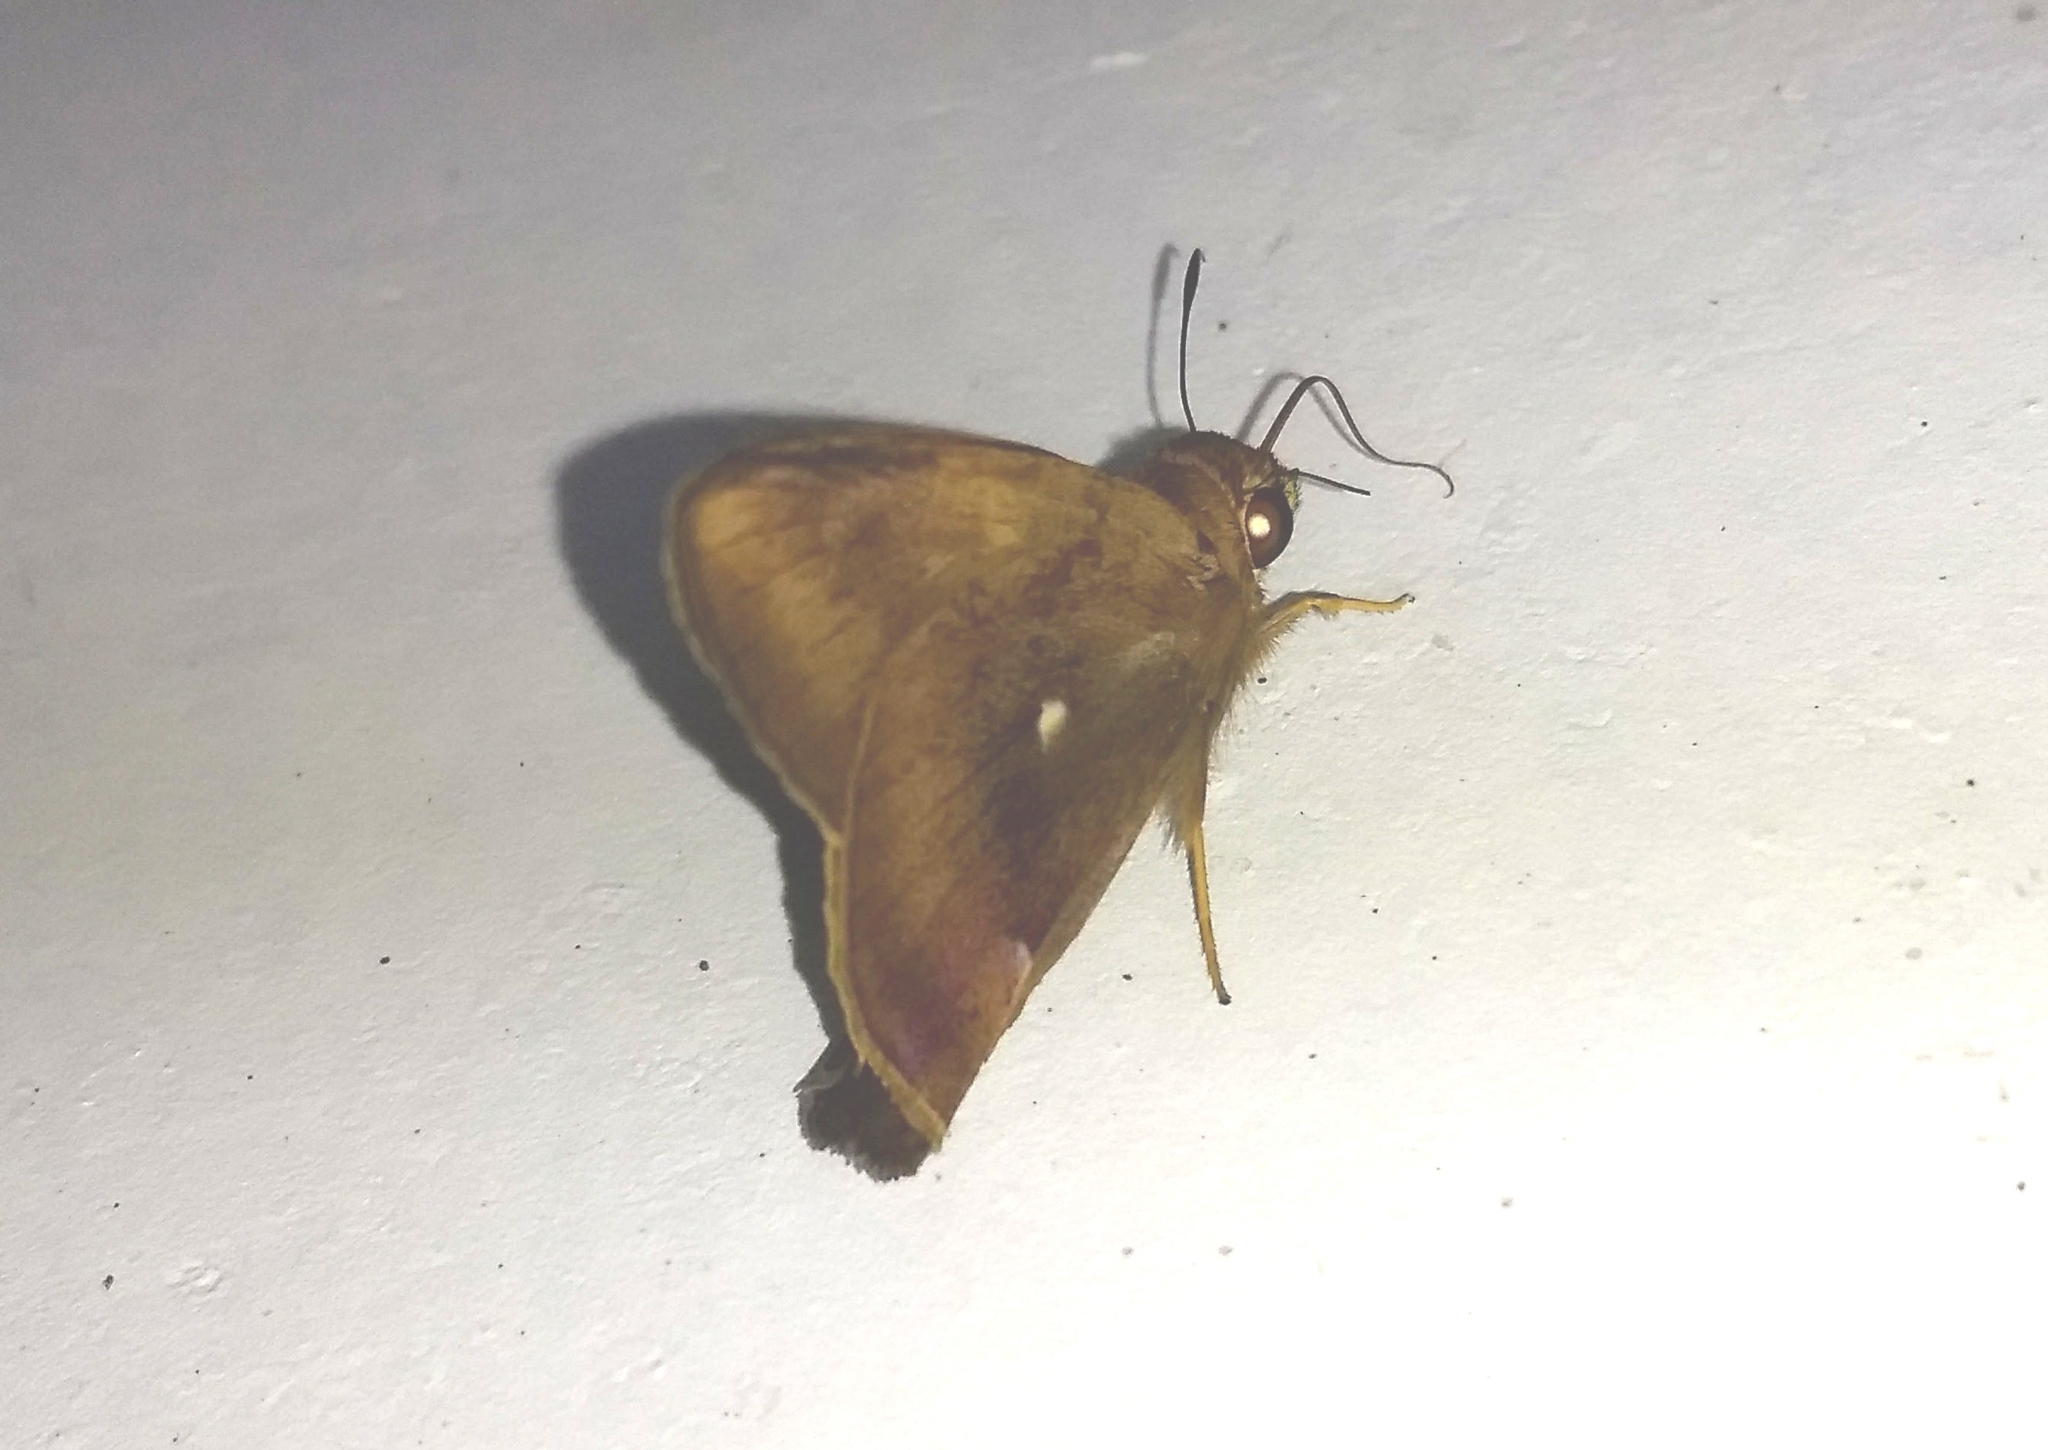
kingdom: Animalia
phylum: Arthropoda
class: Insecta
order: Lepidoptera
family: Hesperiidae
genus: Hasora
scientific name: Hasora badra
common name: Common awl
